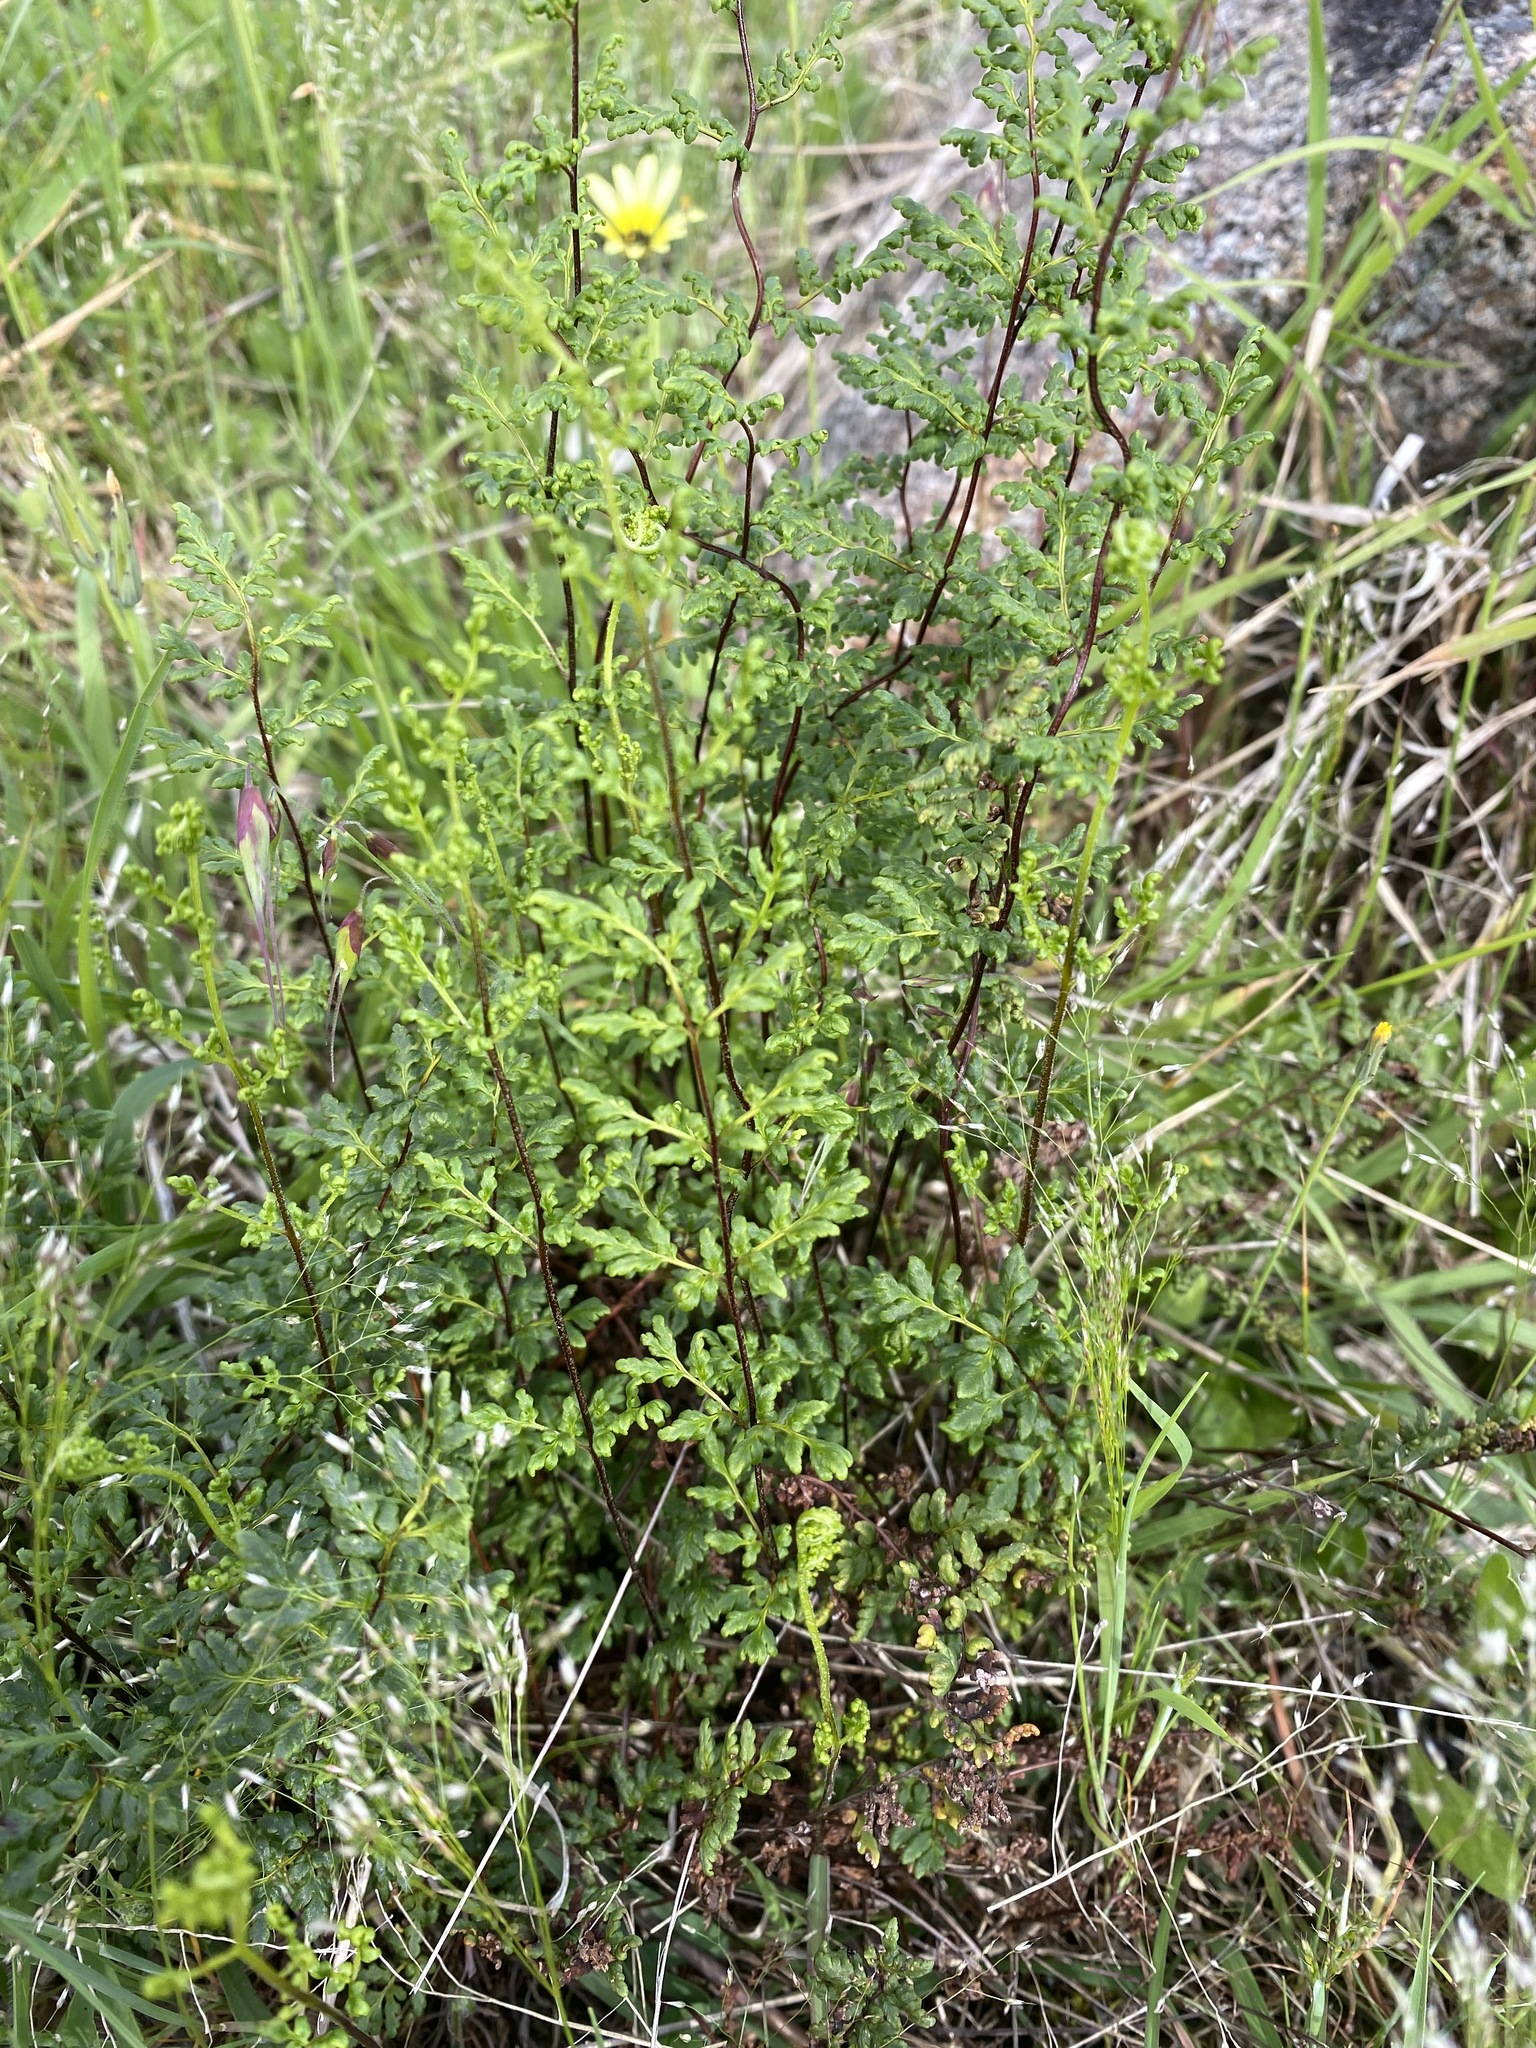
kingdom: Plantae
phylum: Tracheophyta
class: Polypodiopsida
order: Polypodiales
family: Pteridaceae
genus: Cheilanthes
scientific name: Cheilanthes austrotenuifolia
